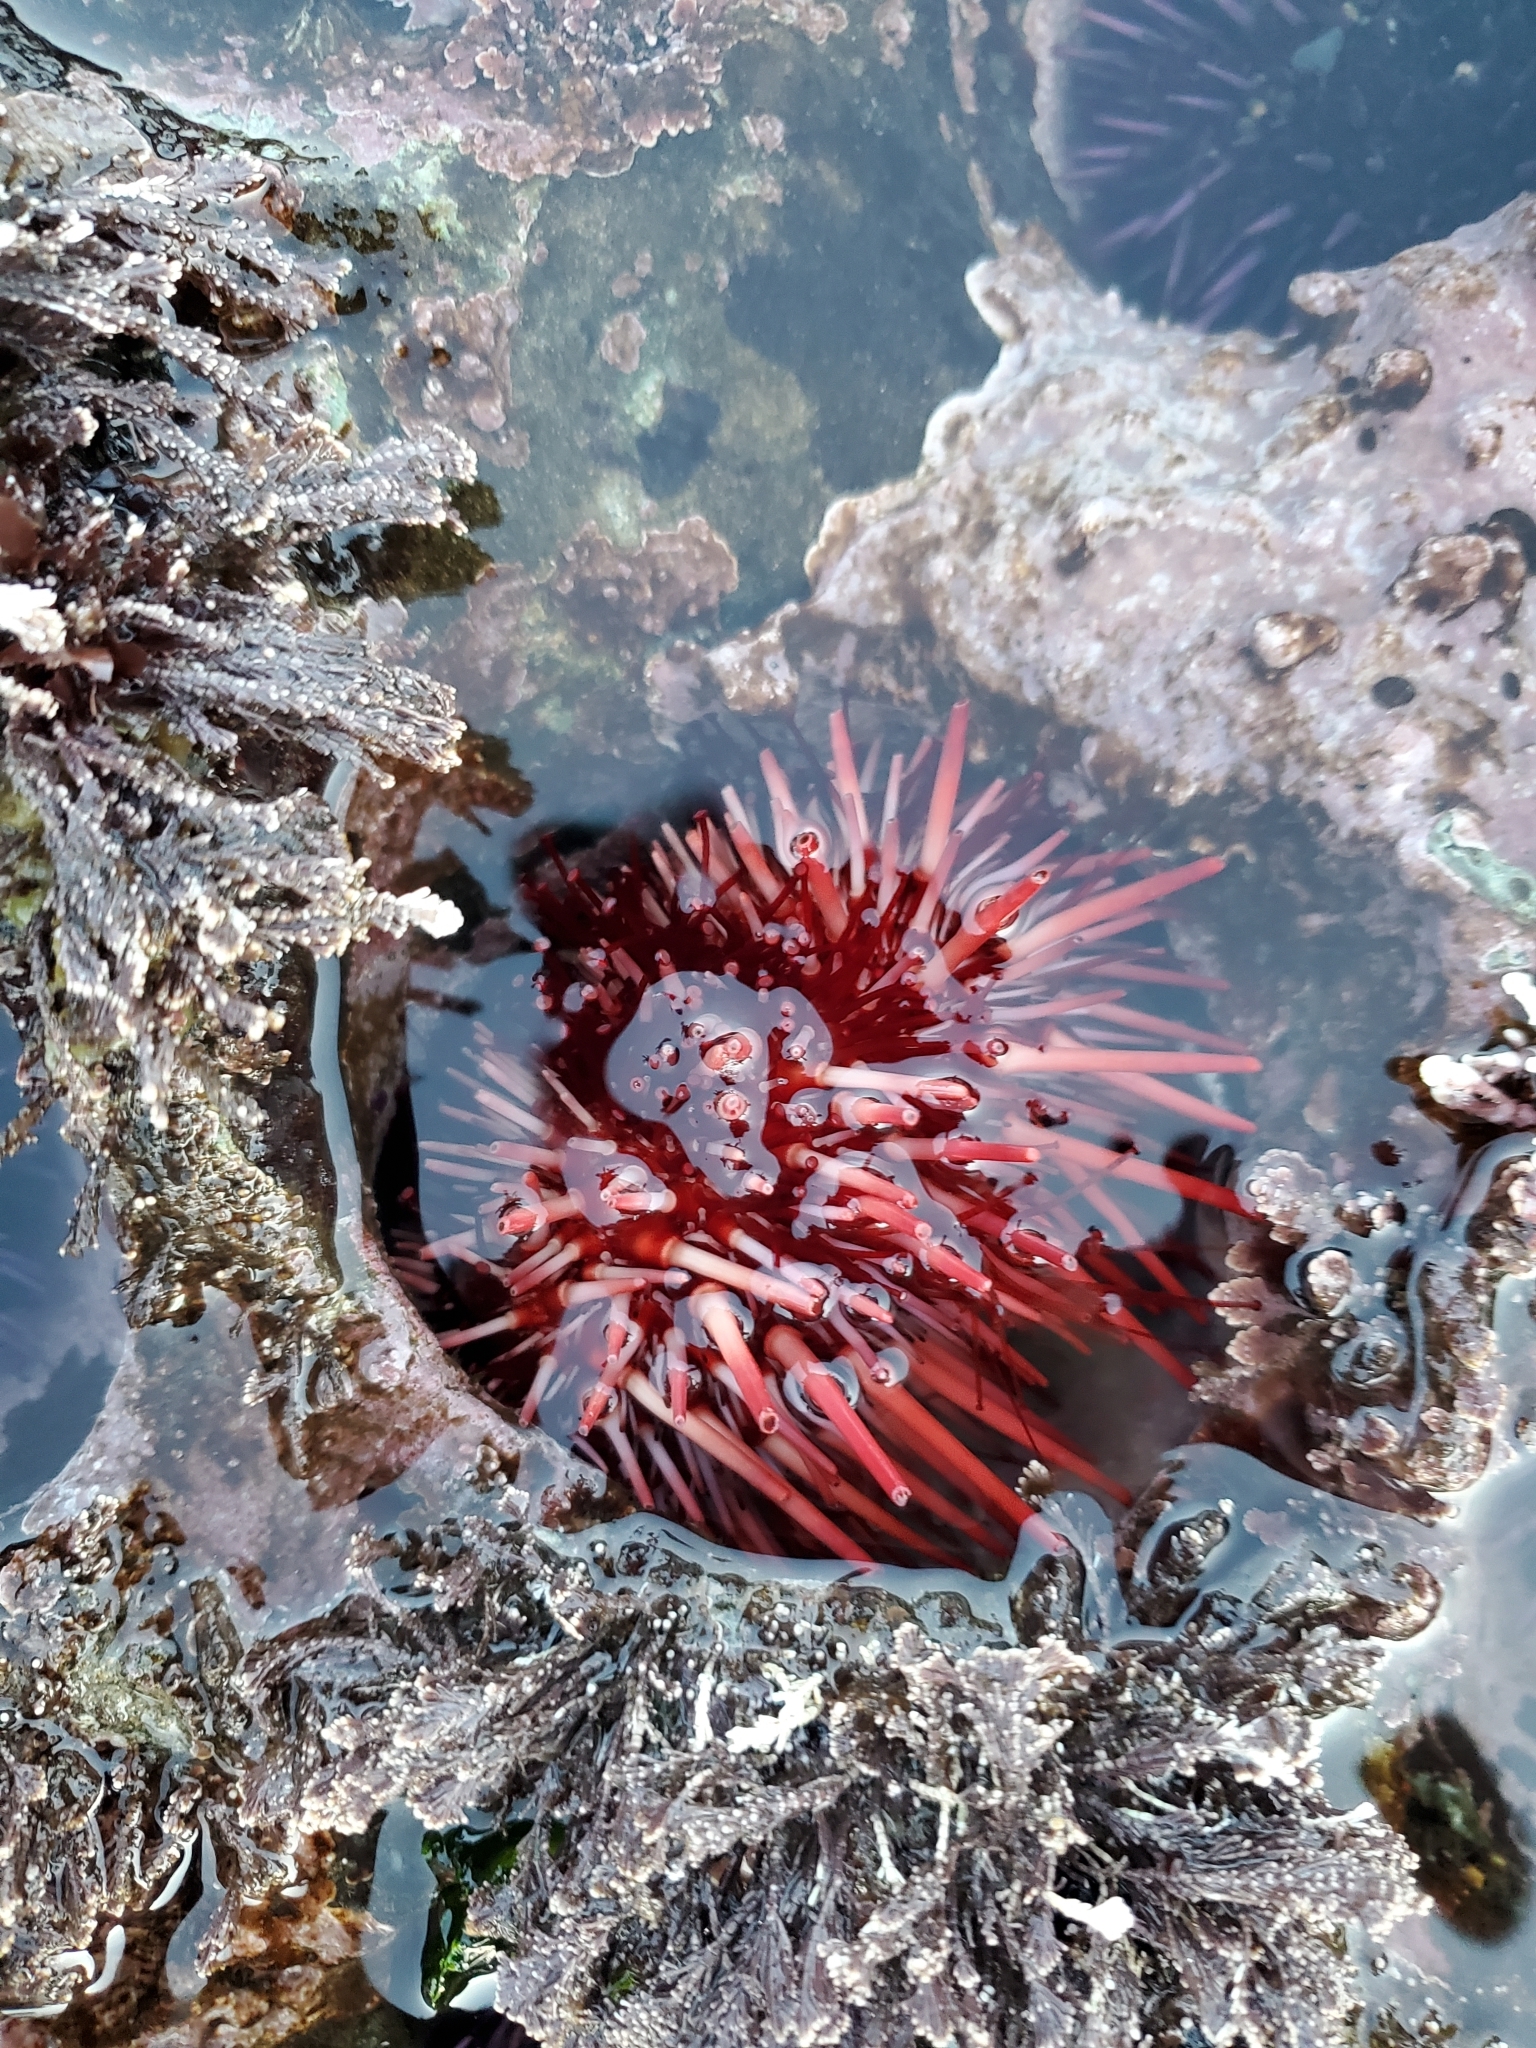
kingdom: Animalia
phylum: Echinodermata
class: Echinoidea
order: Camarodonta
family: Strongylocentrotidae
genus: Mesocentrotus
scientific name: Mesocentrotus franciscanus
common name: Red sea urchin
